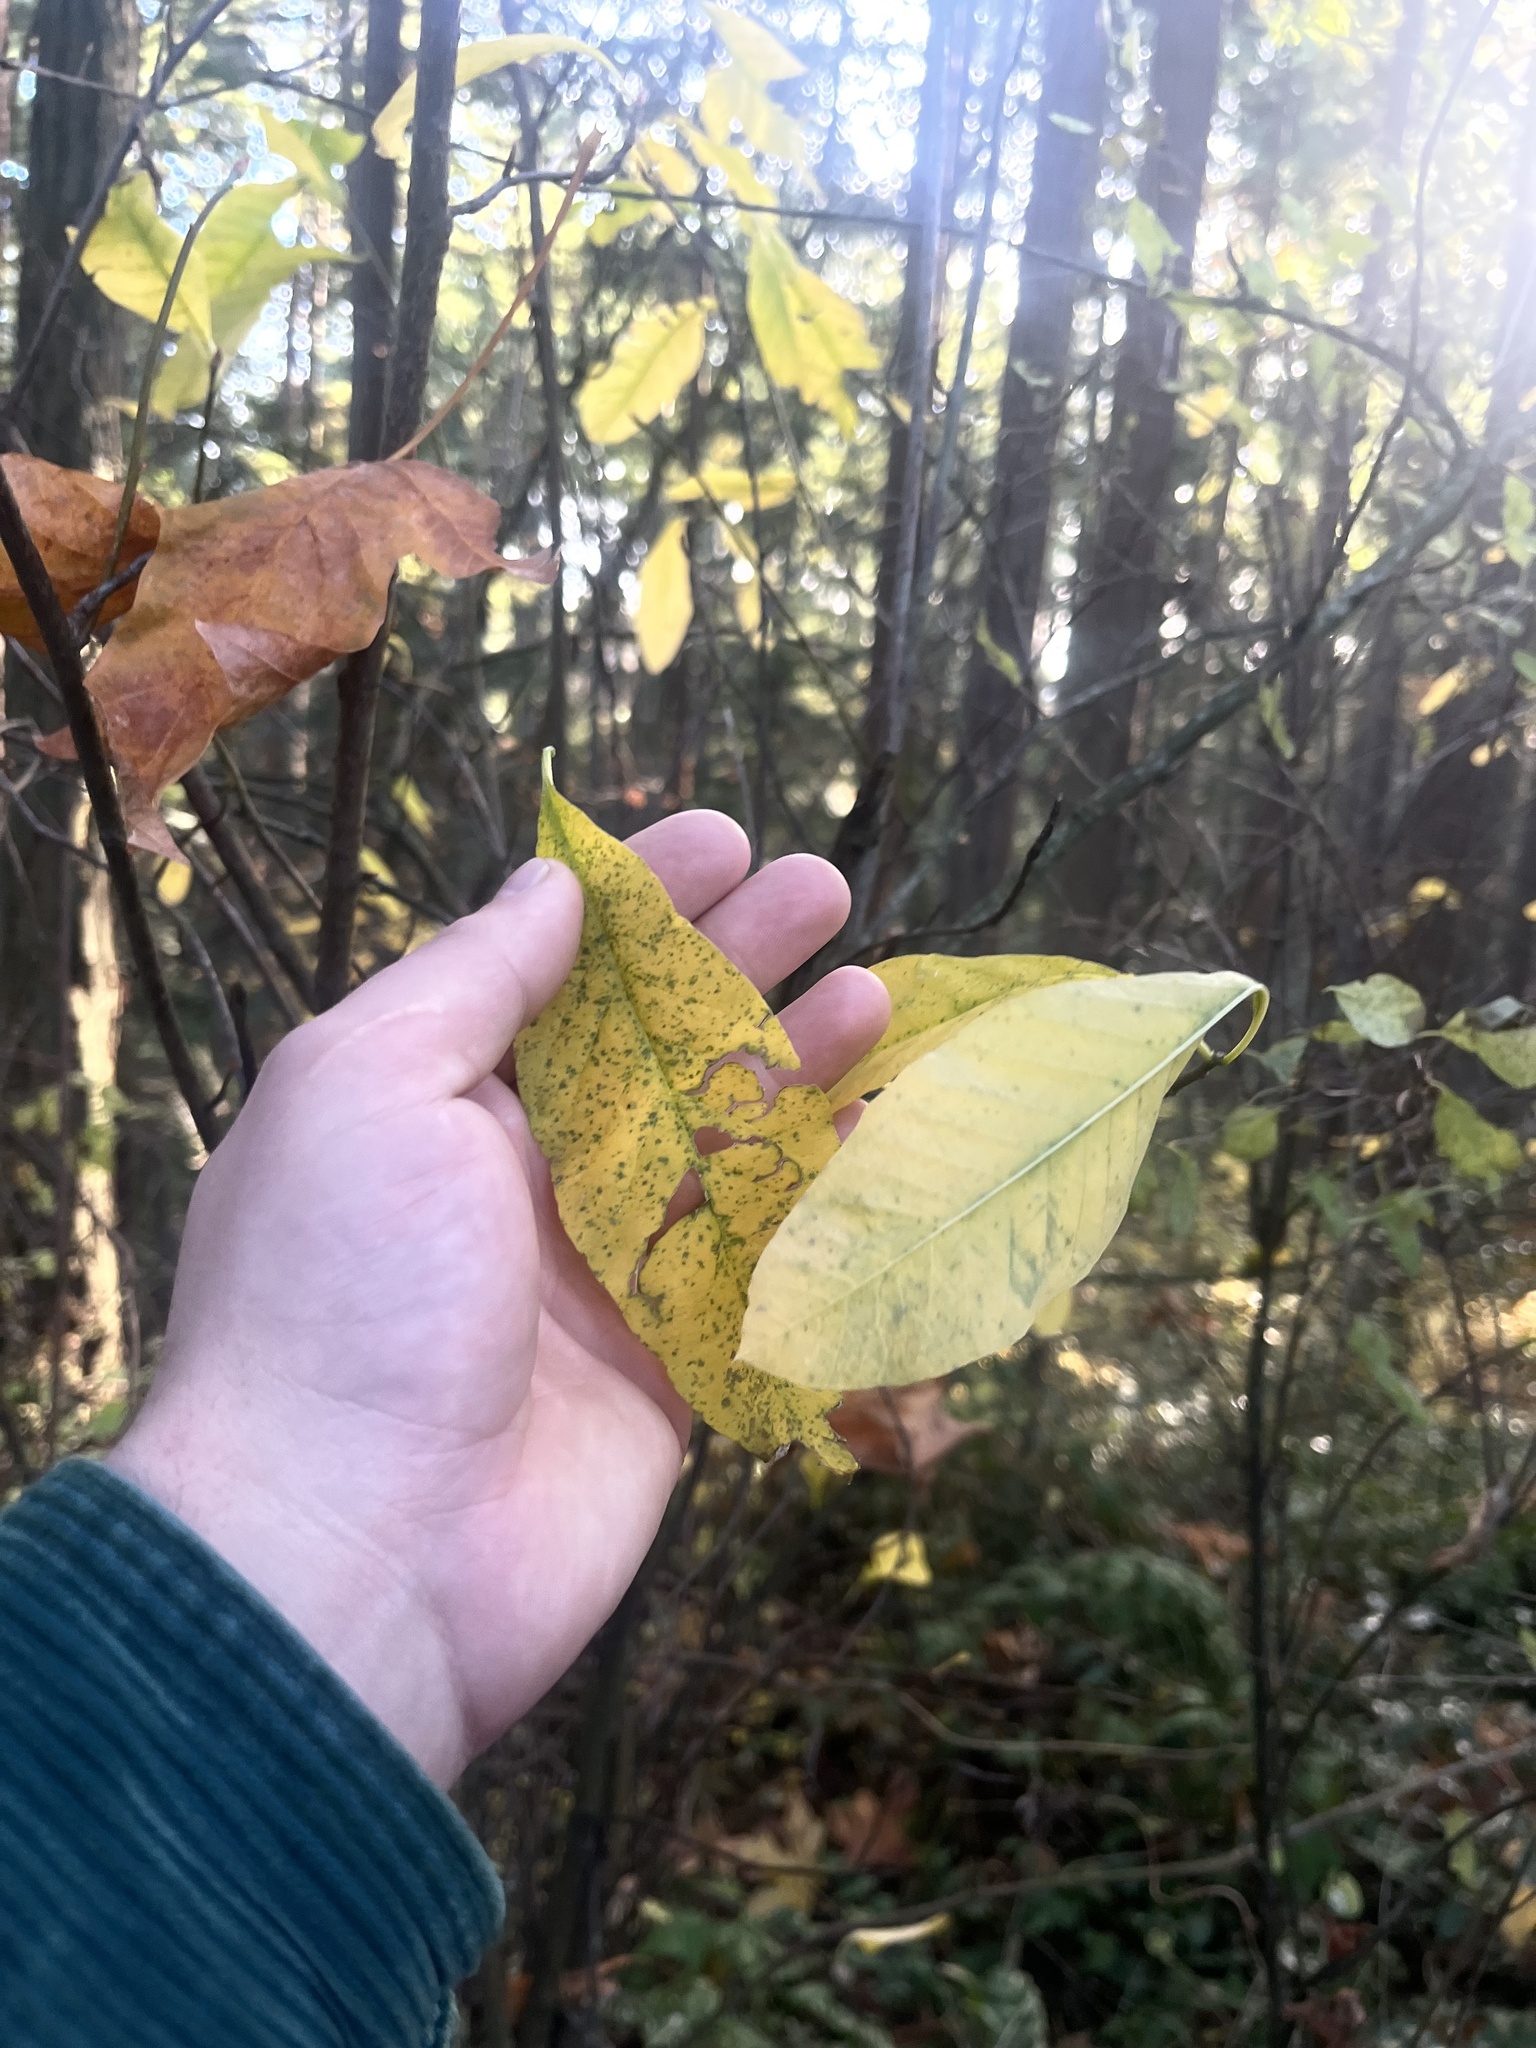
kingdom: Plantae
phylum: Tracheophyta
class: Magnoliopsida
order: Rosales
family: Rosaceae
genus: Oemleria
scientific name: Oemleria cerasiformis
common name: Osoberry
